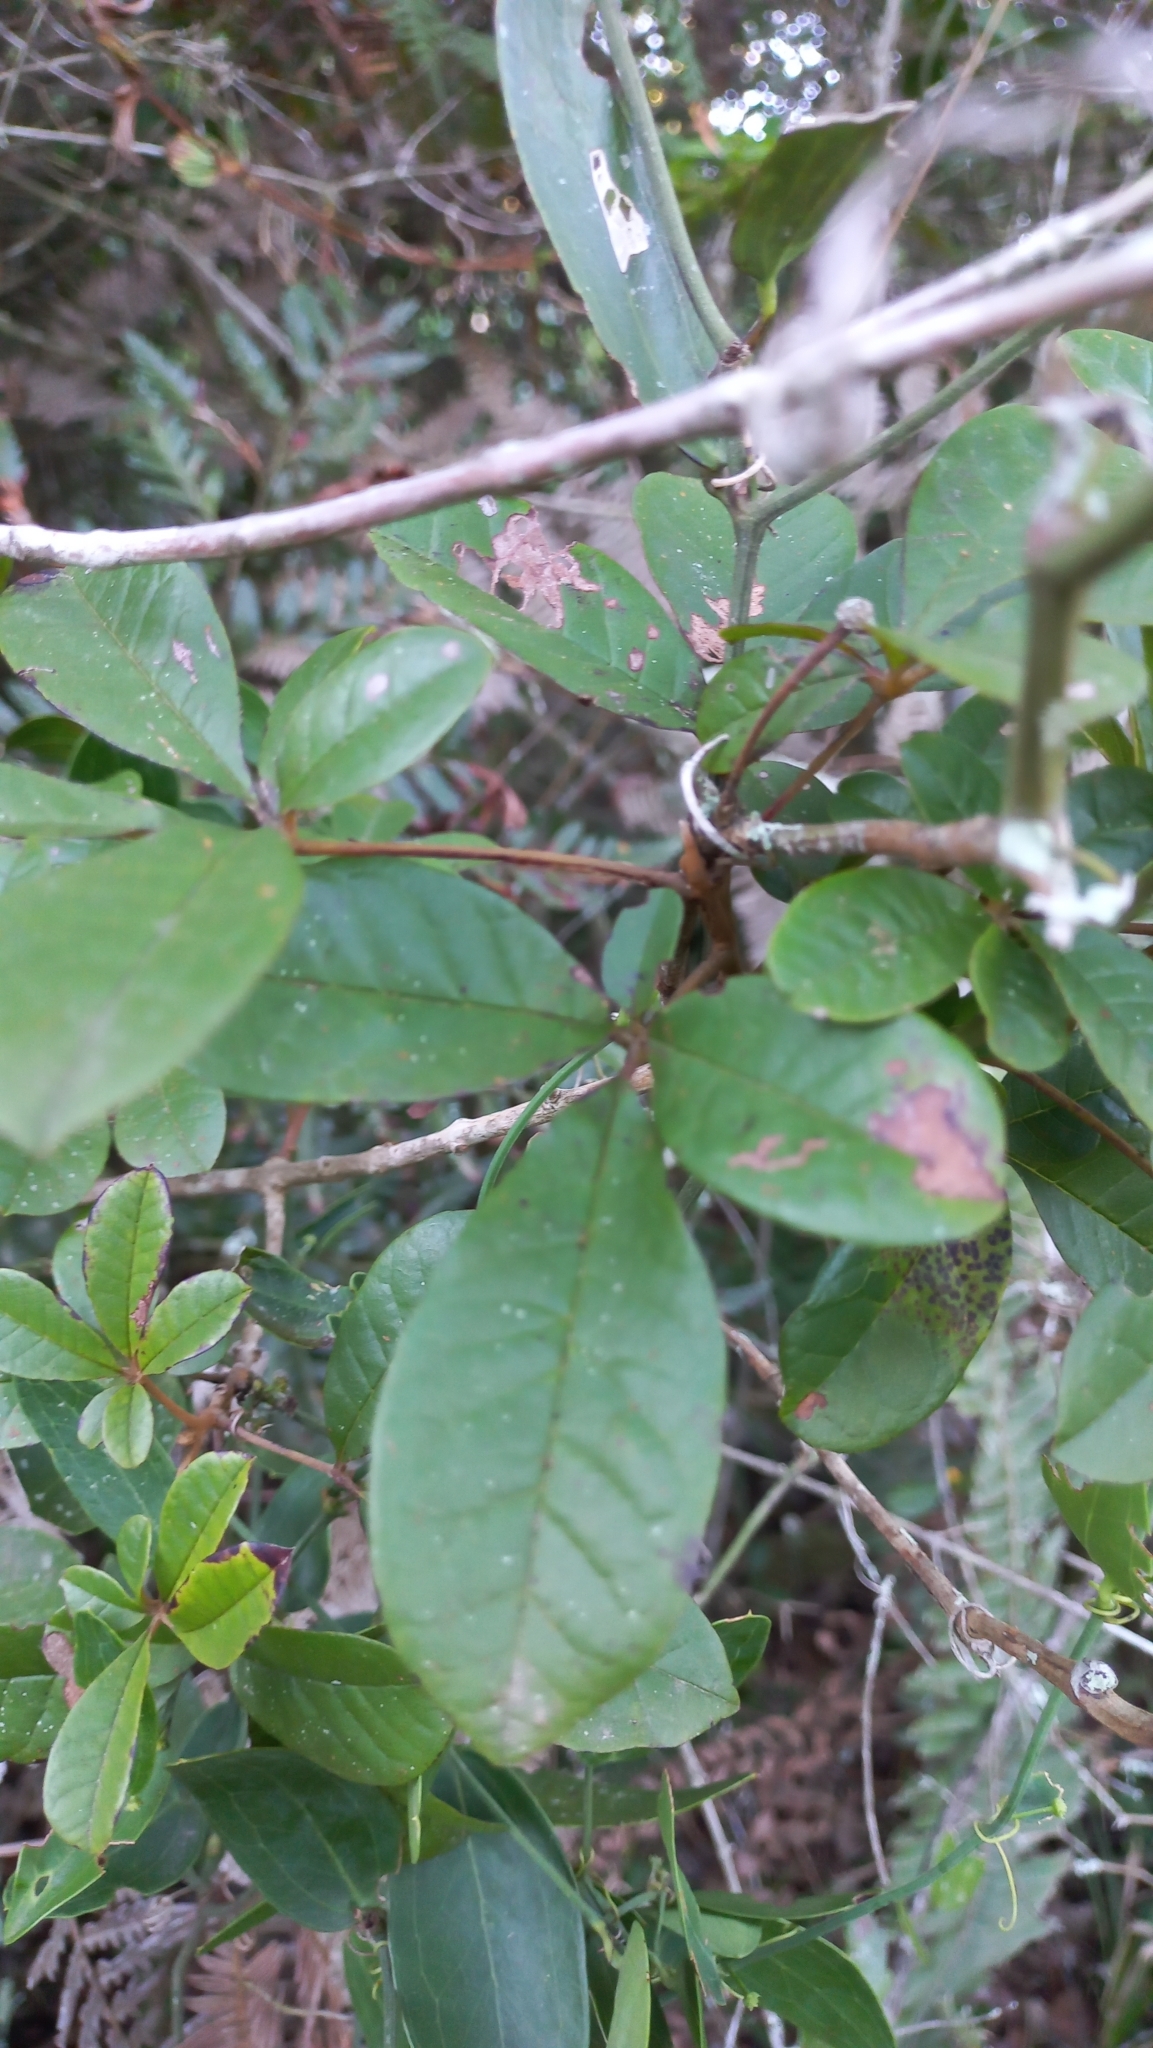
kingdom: Plantae
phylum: Tracheophyta
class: Magnoliopsida
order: Lamiales
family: Lamiaceae
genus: Vitex
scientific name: Vitex megapotamica
